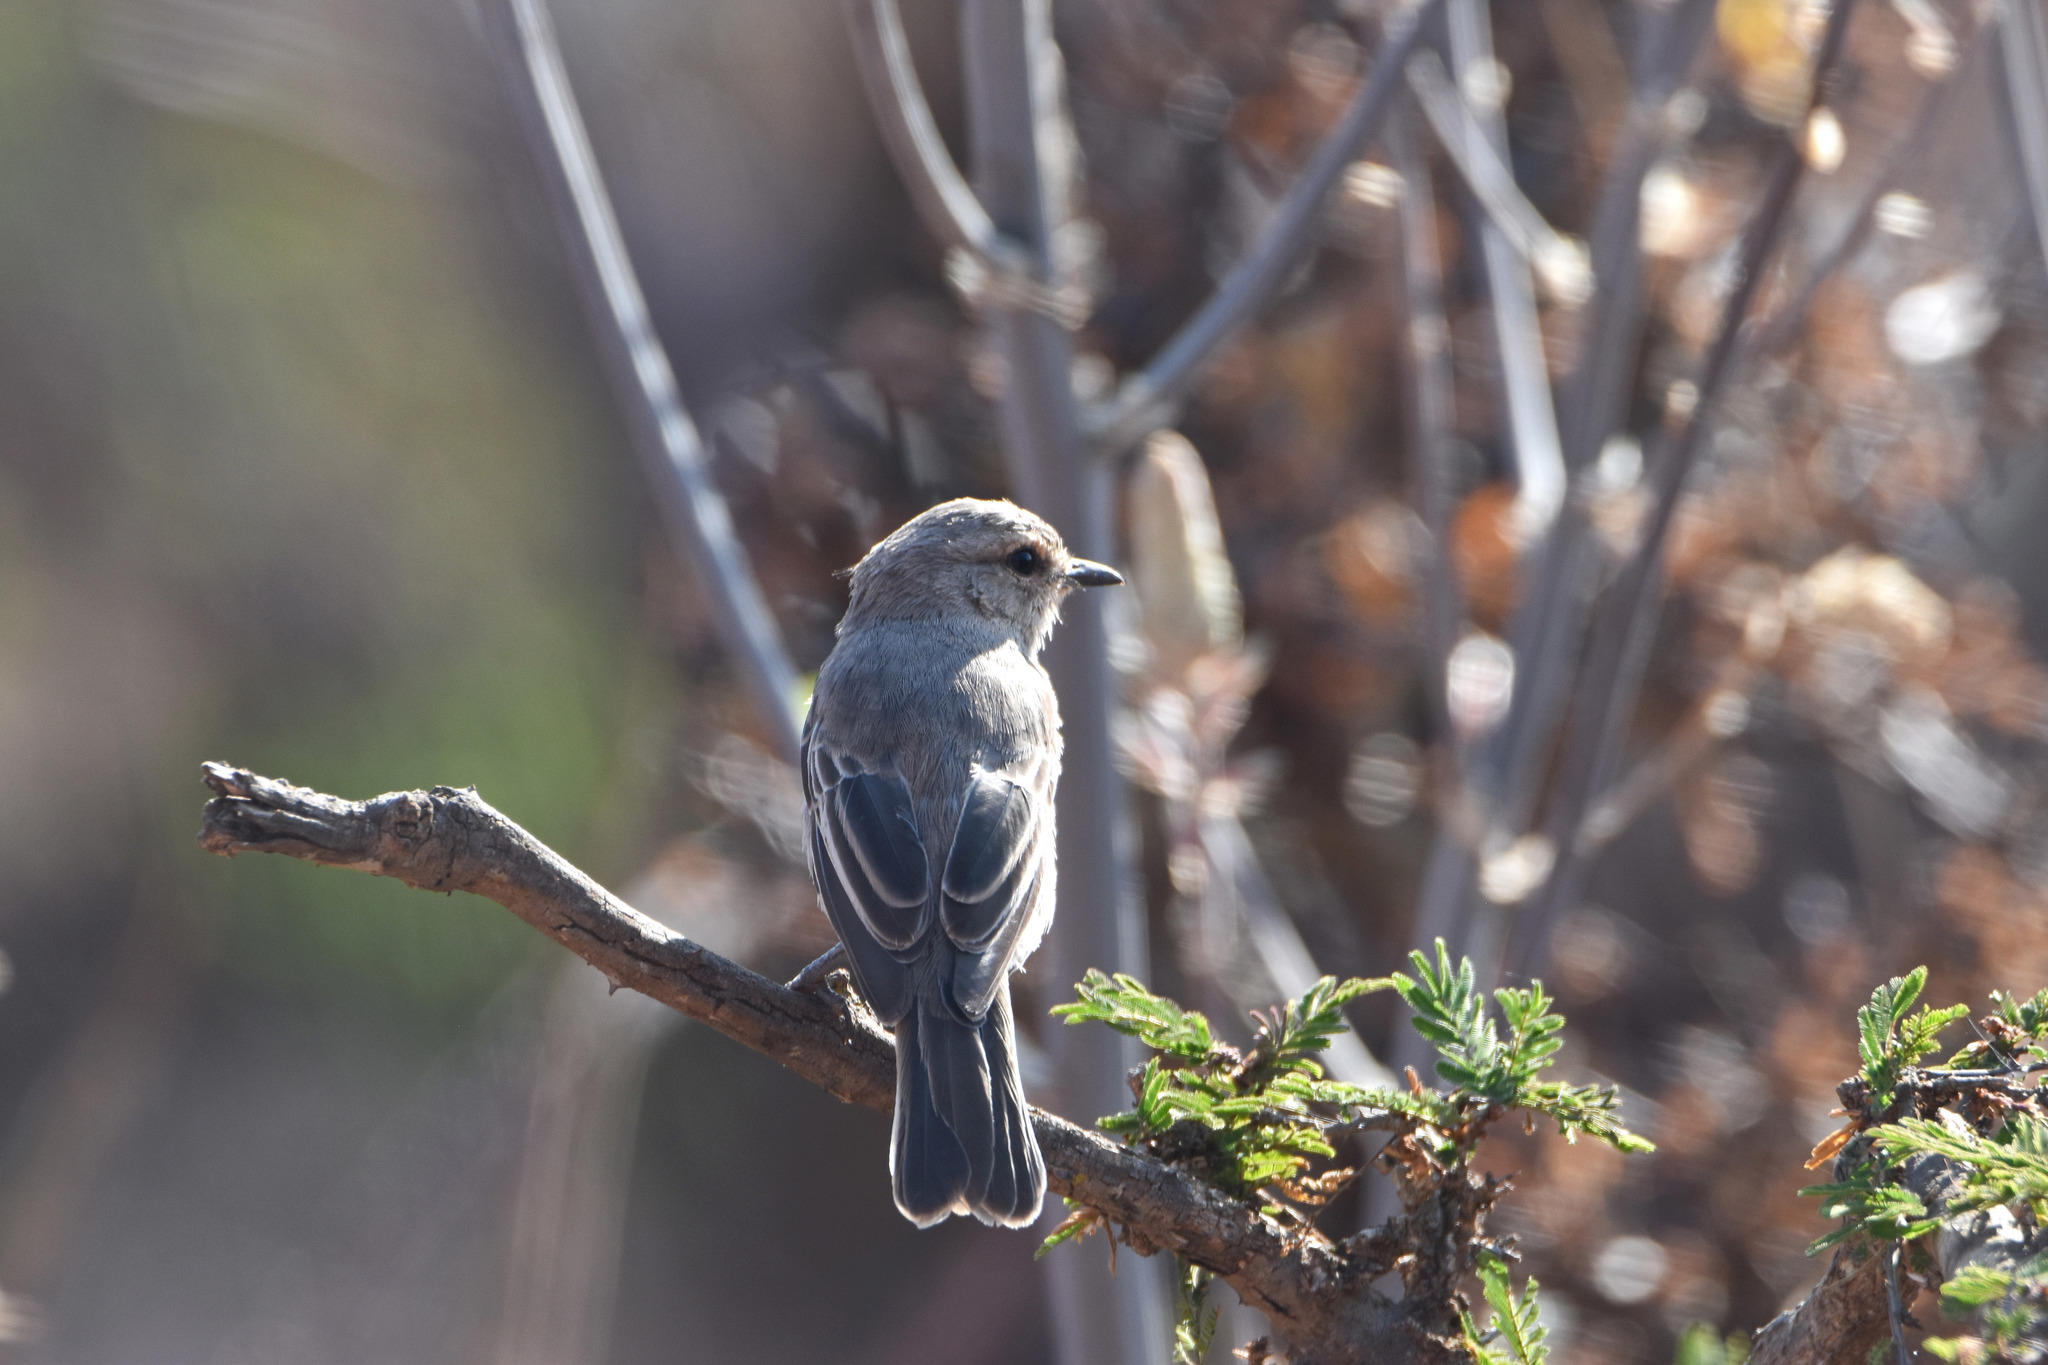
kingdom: Animalia
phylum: Chordata
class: Aves
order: Passeriformes
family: Muscicapidae
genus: Bradornis
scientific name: Bradornis microrhynchus
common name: African grey flycatcher
